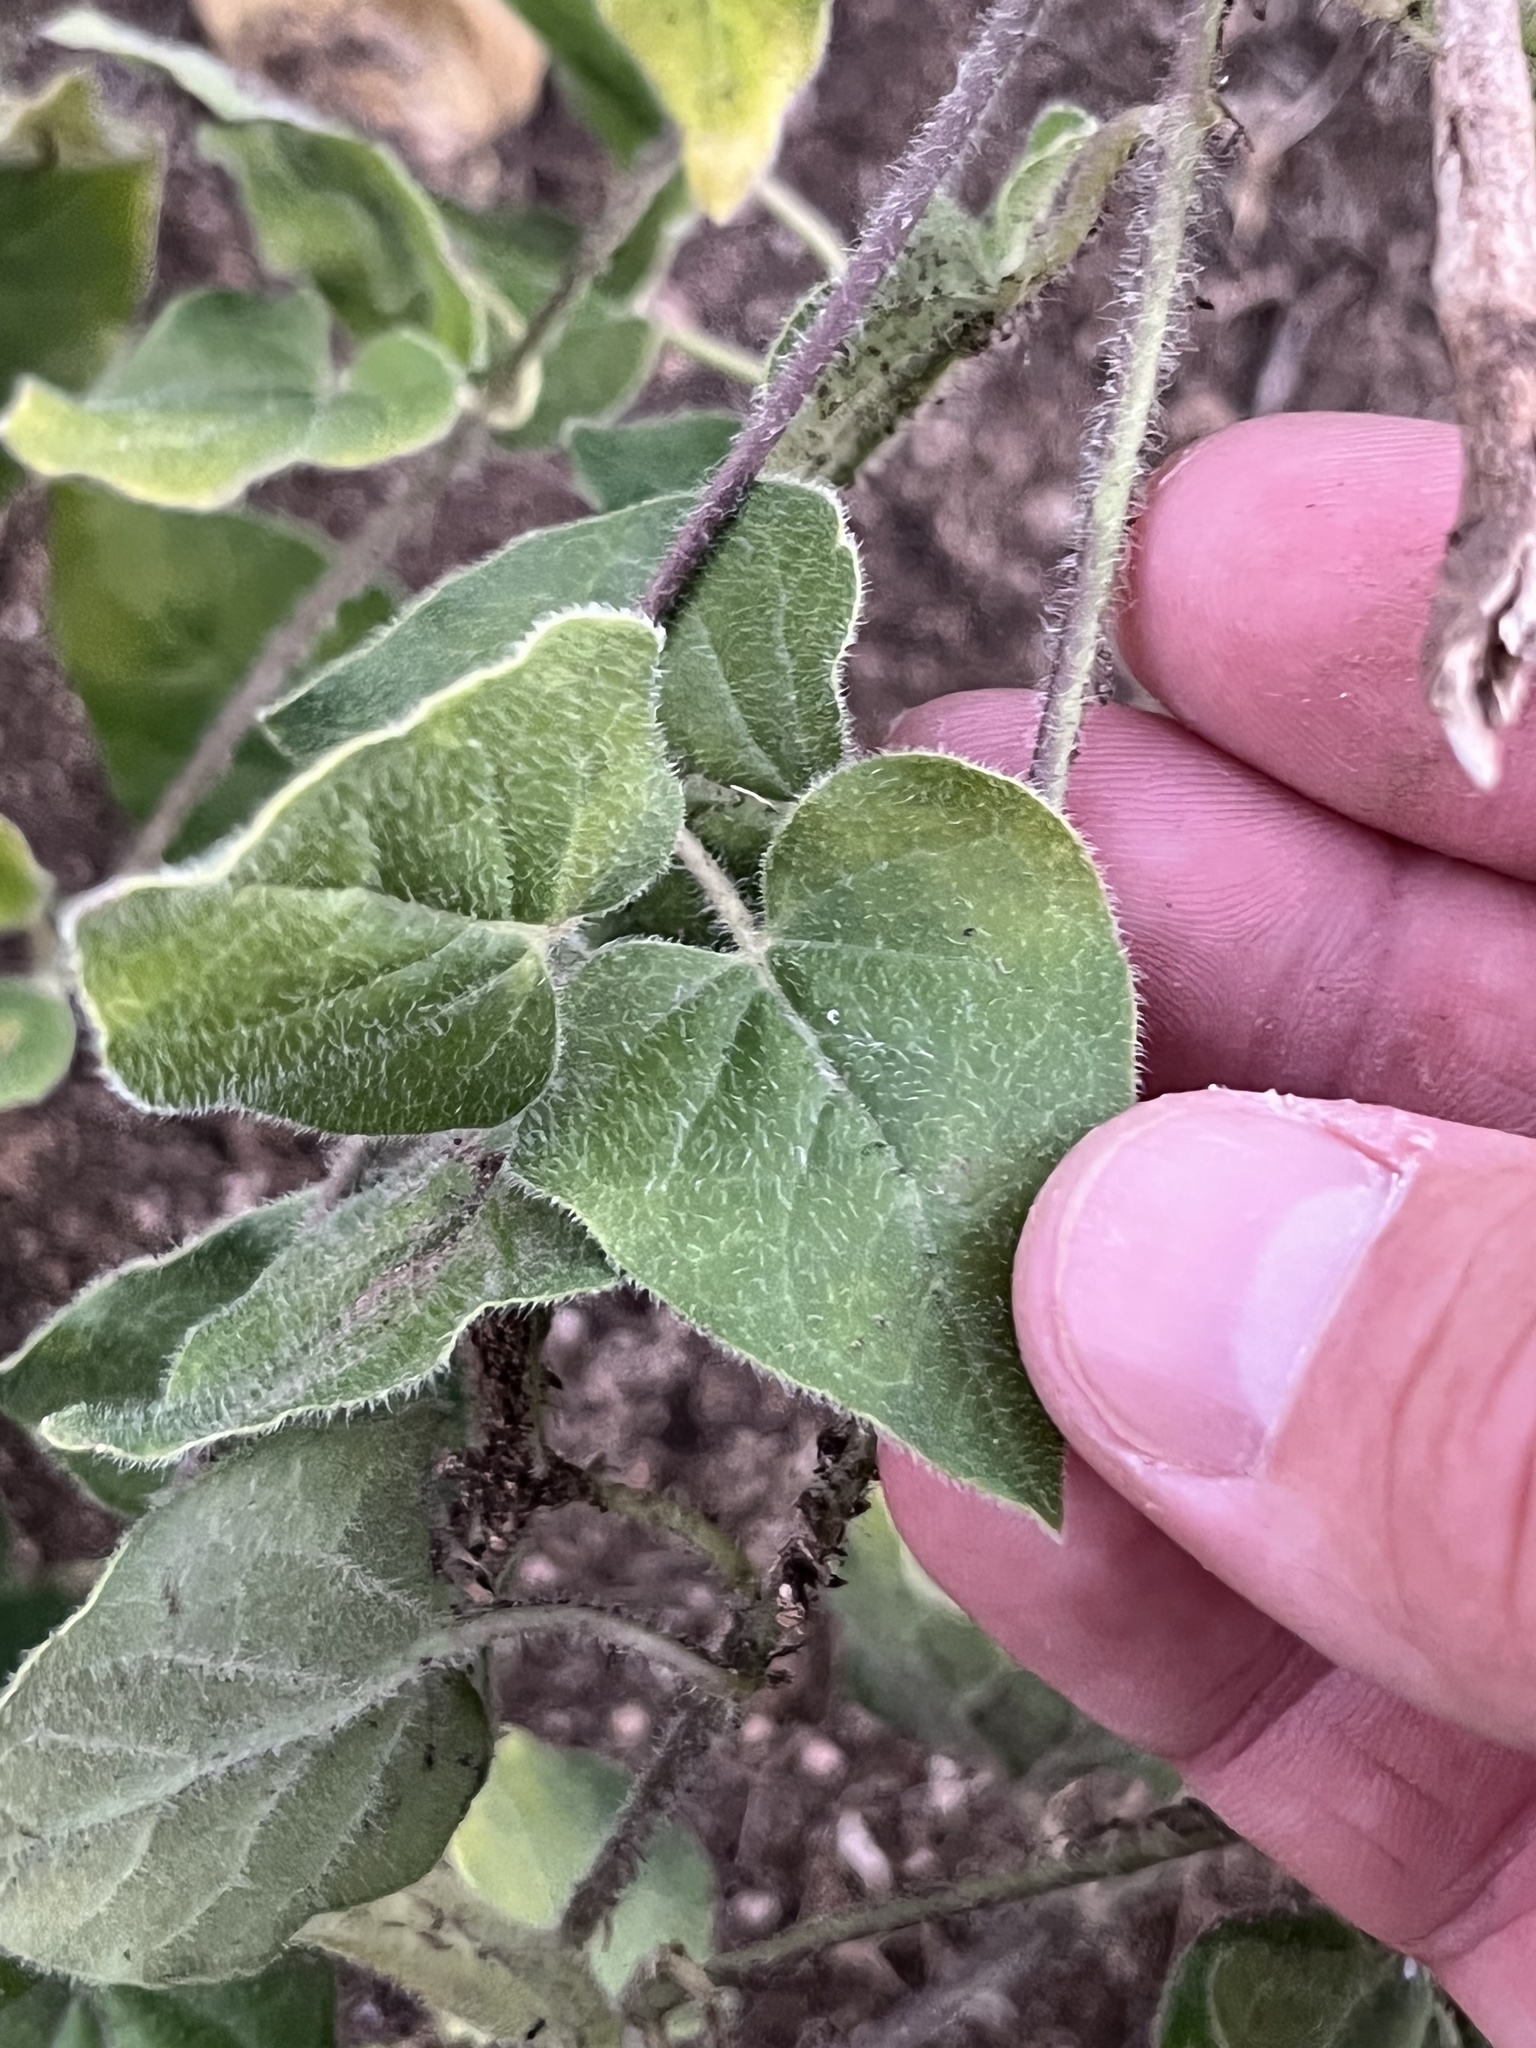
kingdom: Plantae
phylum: Tracheophyta
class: Magnoliopsida
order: Gentianales
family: Apocynaceae
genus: Chthamalia
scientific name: Chthamalia biflora
